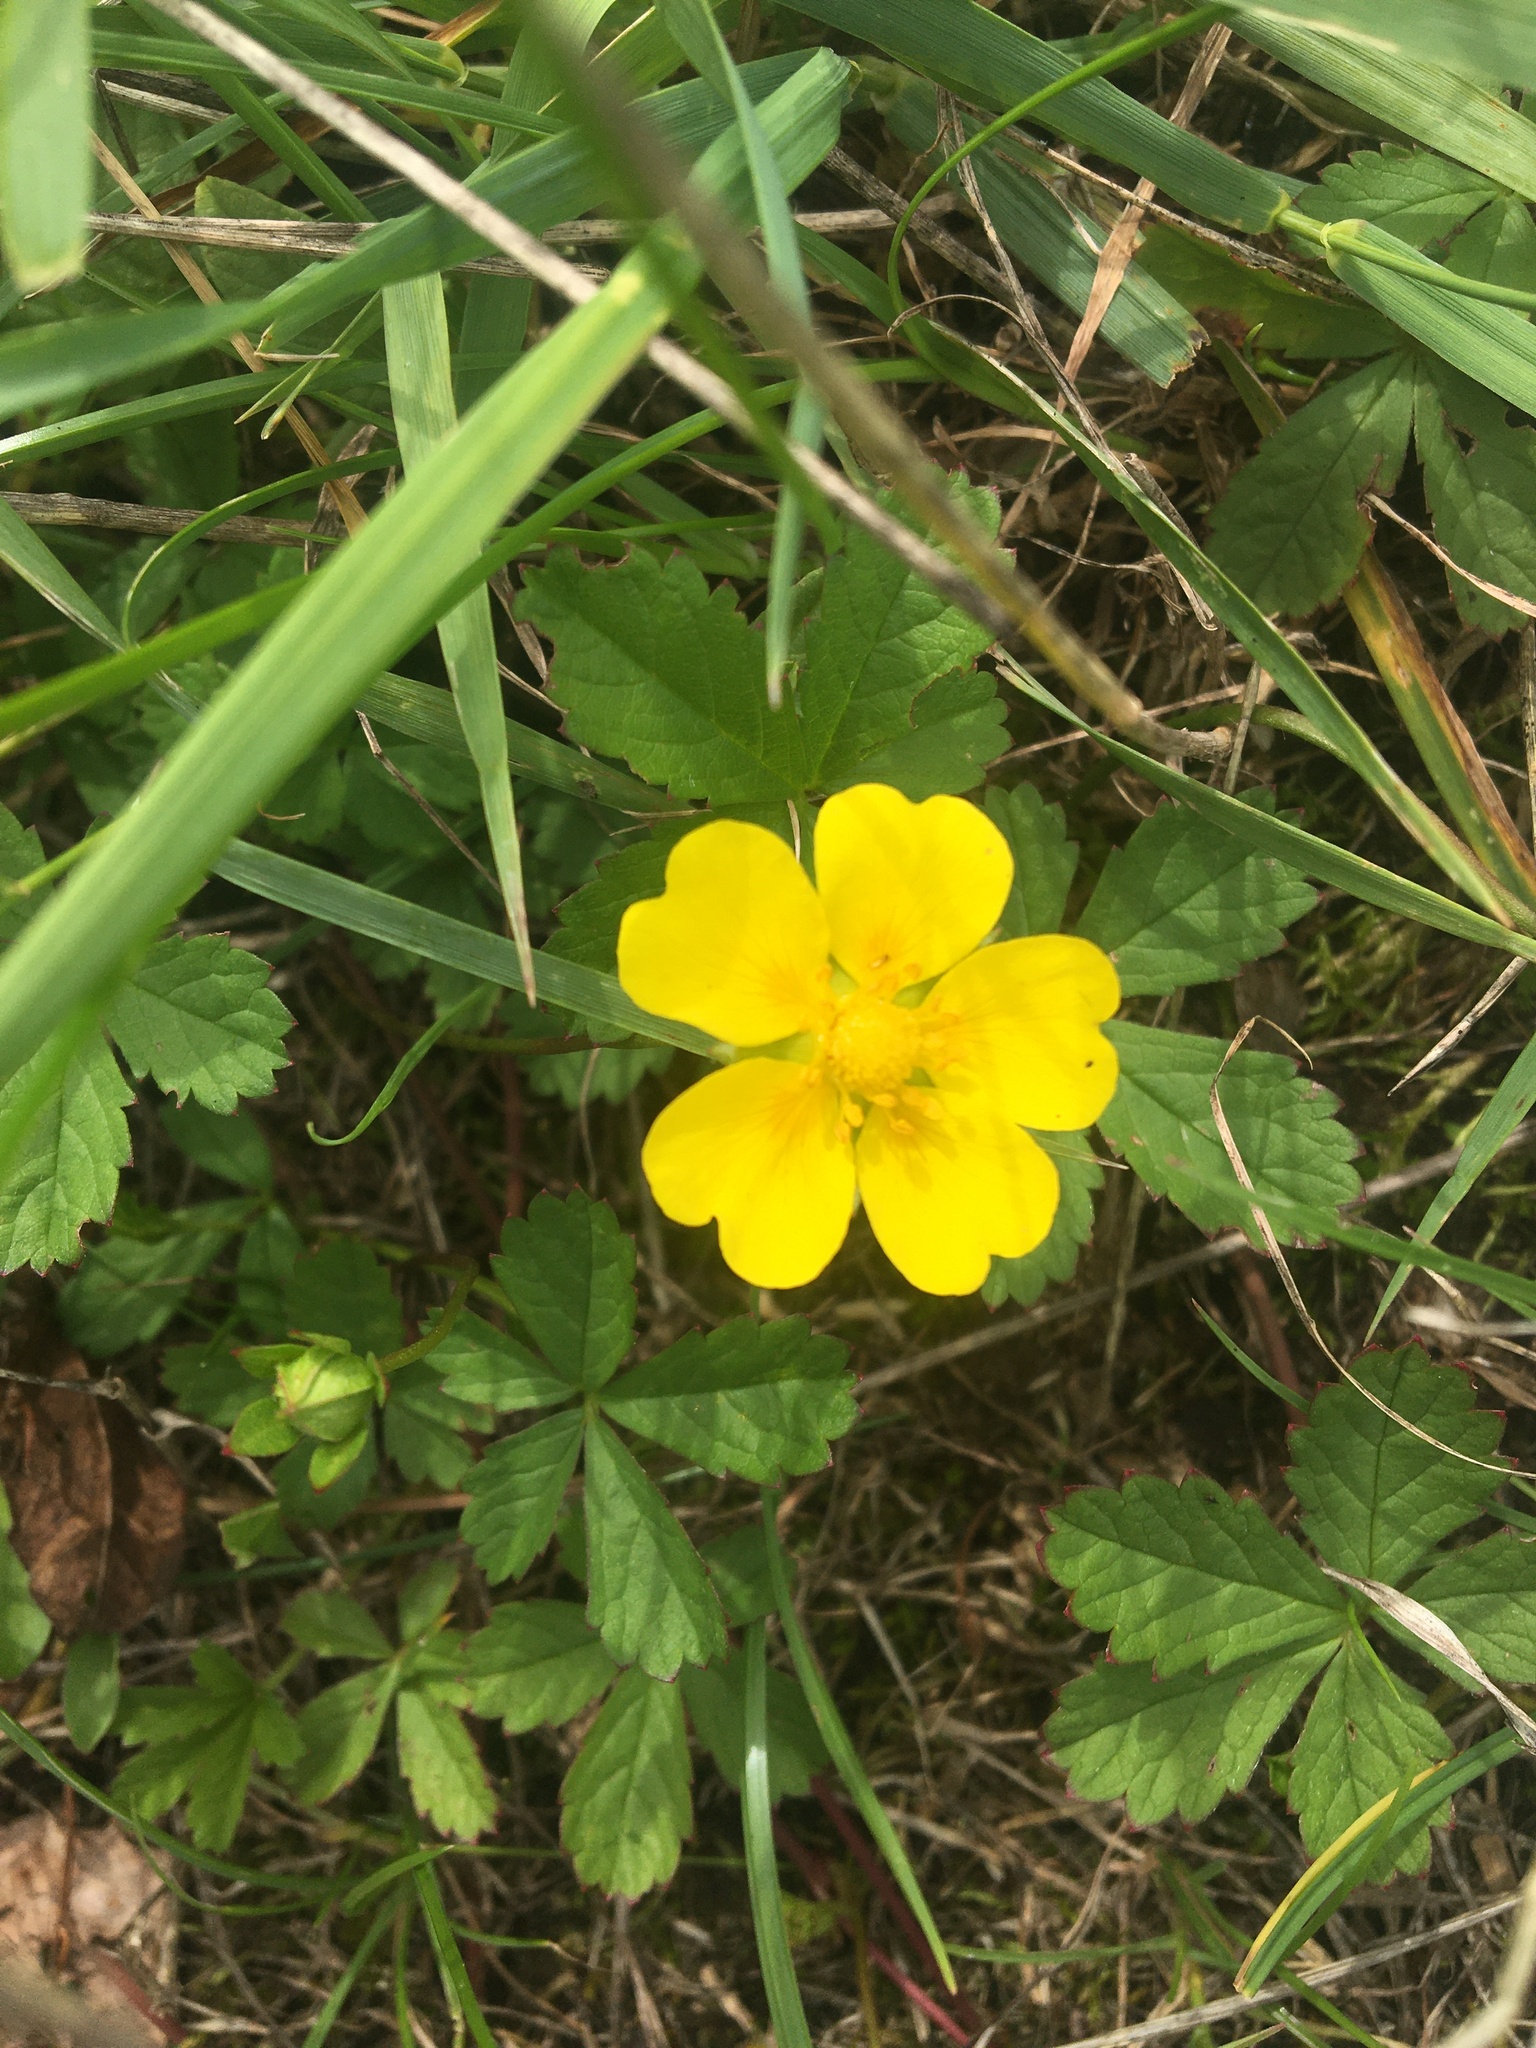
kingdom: Plantae
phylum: Tracheophyta
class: Magnoliopsida
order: Rosales
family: Rosaceae
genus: Potentilla
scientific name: Potentilla reptans
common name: Creeping cinquefoil
